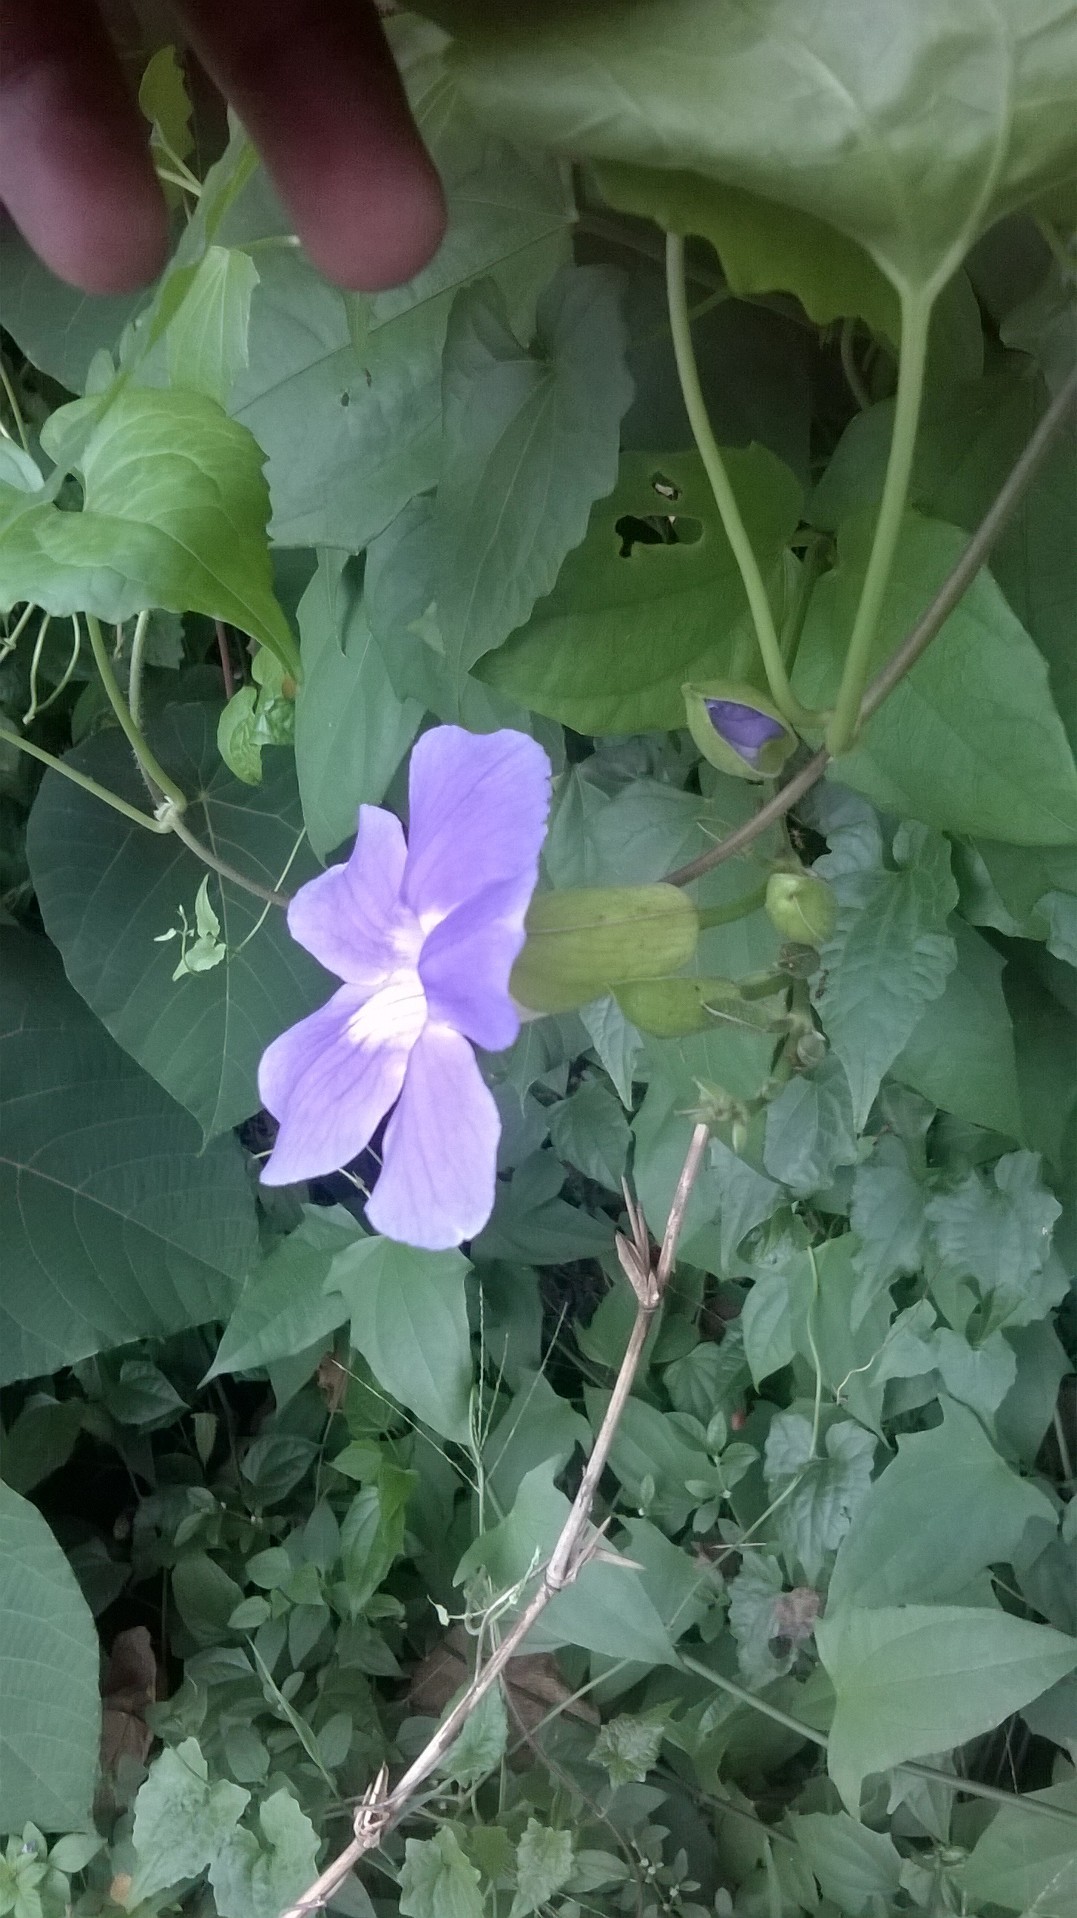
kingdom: Plantae
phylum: Tracheophyta
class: Magnoliopsida
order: Lamiales
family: Acanthaceae
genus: Thunbergia
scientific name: Thunbergia grandiflora
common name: Bengal trumpet
